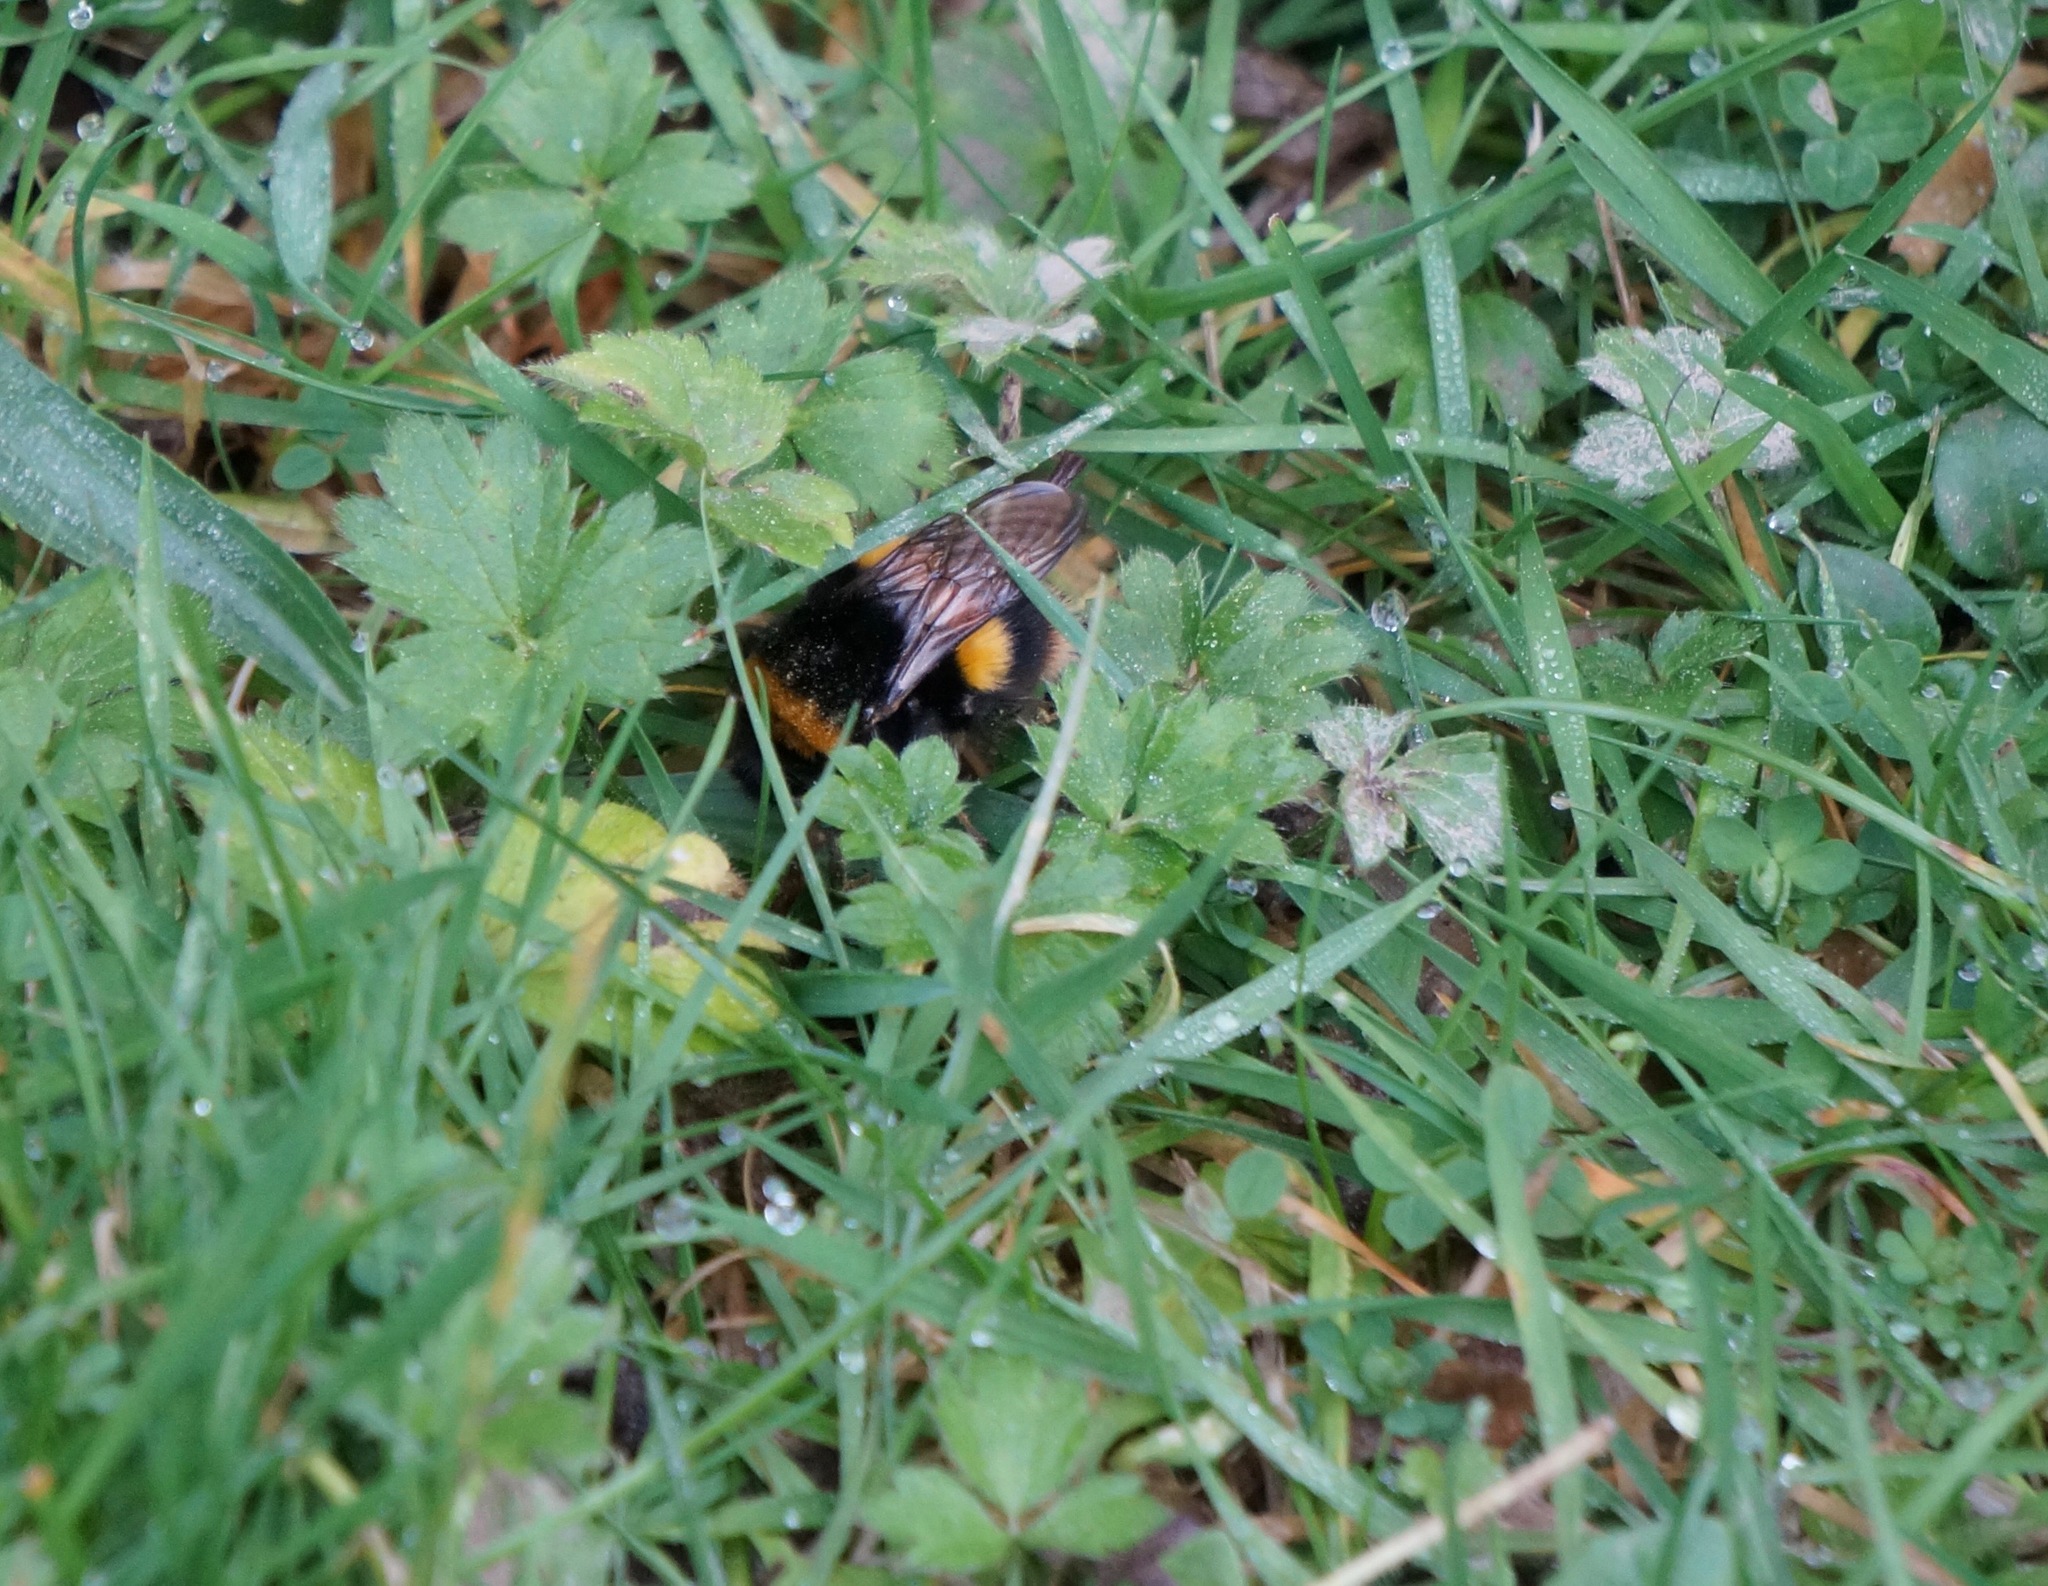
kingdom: Animalia
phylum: Arthropoda
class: Insecta
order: Hymenoptera
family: Apidae
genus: Bombus
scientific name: Bombus terrestris
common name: Buff-tailed bumblebee
